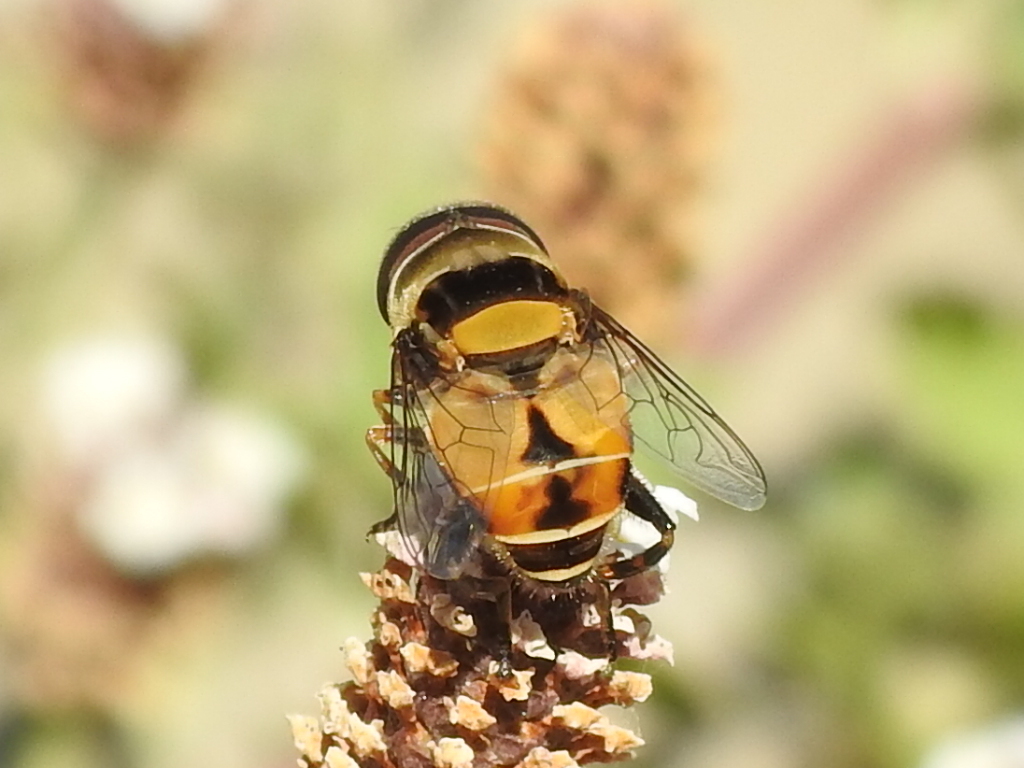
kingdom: Animalia
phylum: Arthropoda
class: Insecta
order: Diptera
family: Syrphidae
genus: Palpada
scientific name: Palpada pusilla
